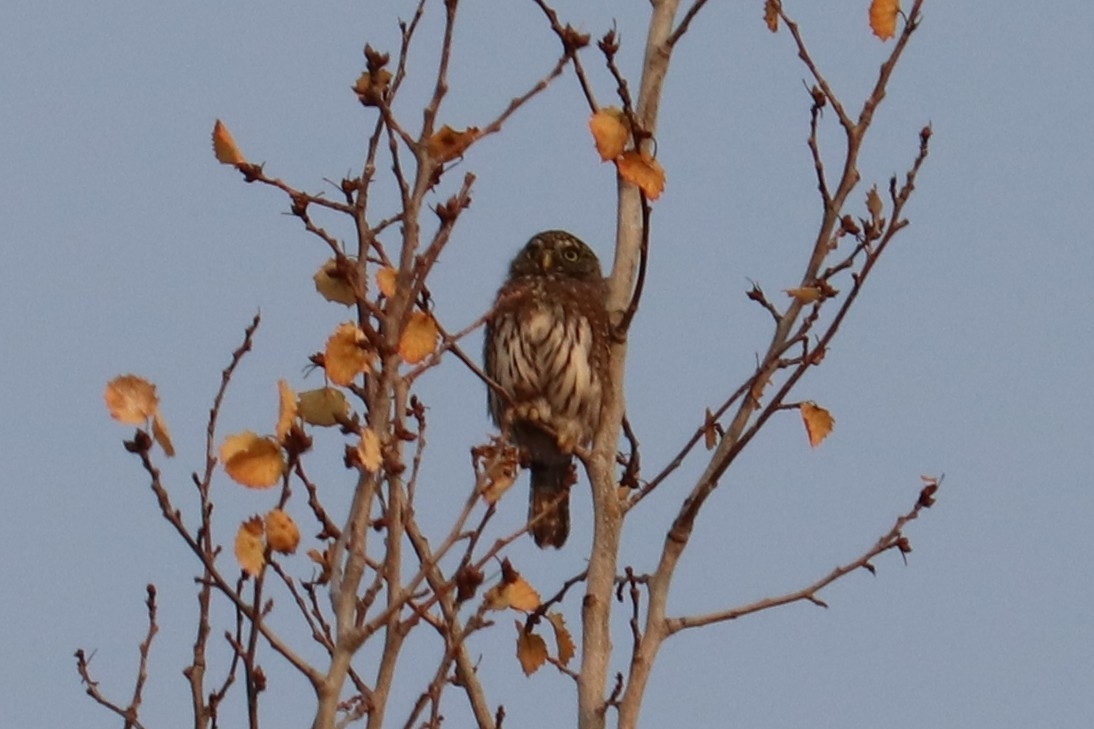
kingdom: Animalia
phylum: Chordata
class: Aves
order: Strigiformes
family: Strigidae
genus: Glaucidium
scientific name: Glaucidium gnoma
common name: Northern pygmy-owl
